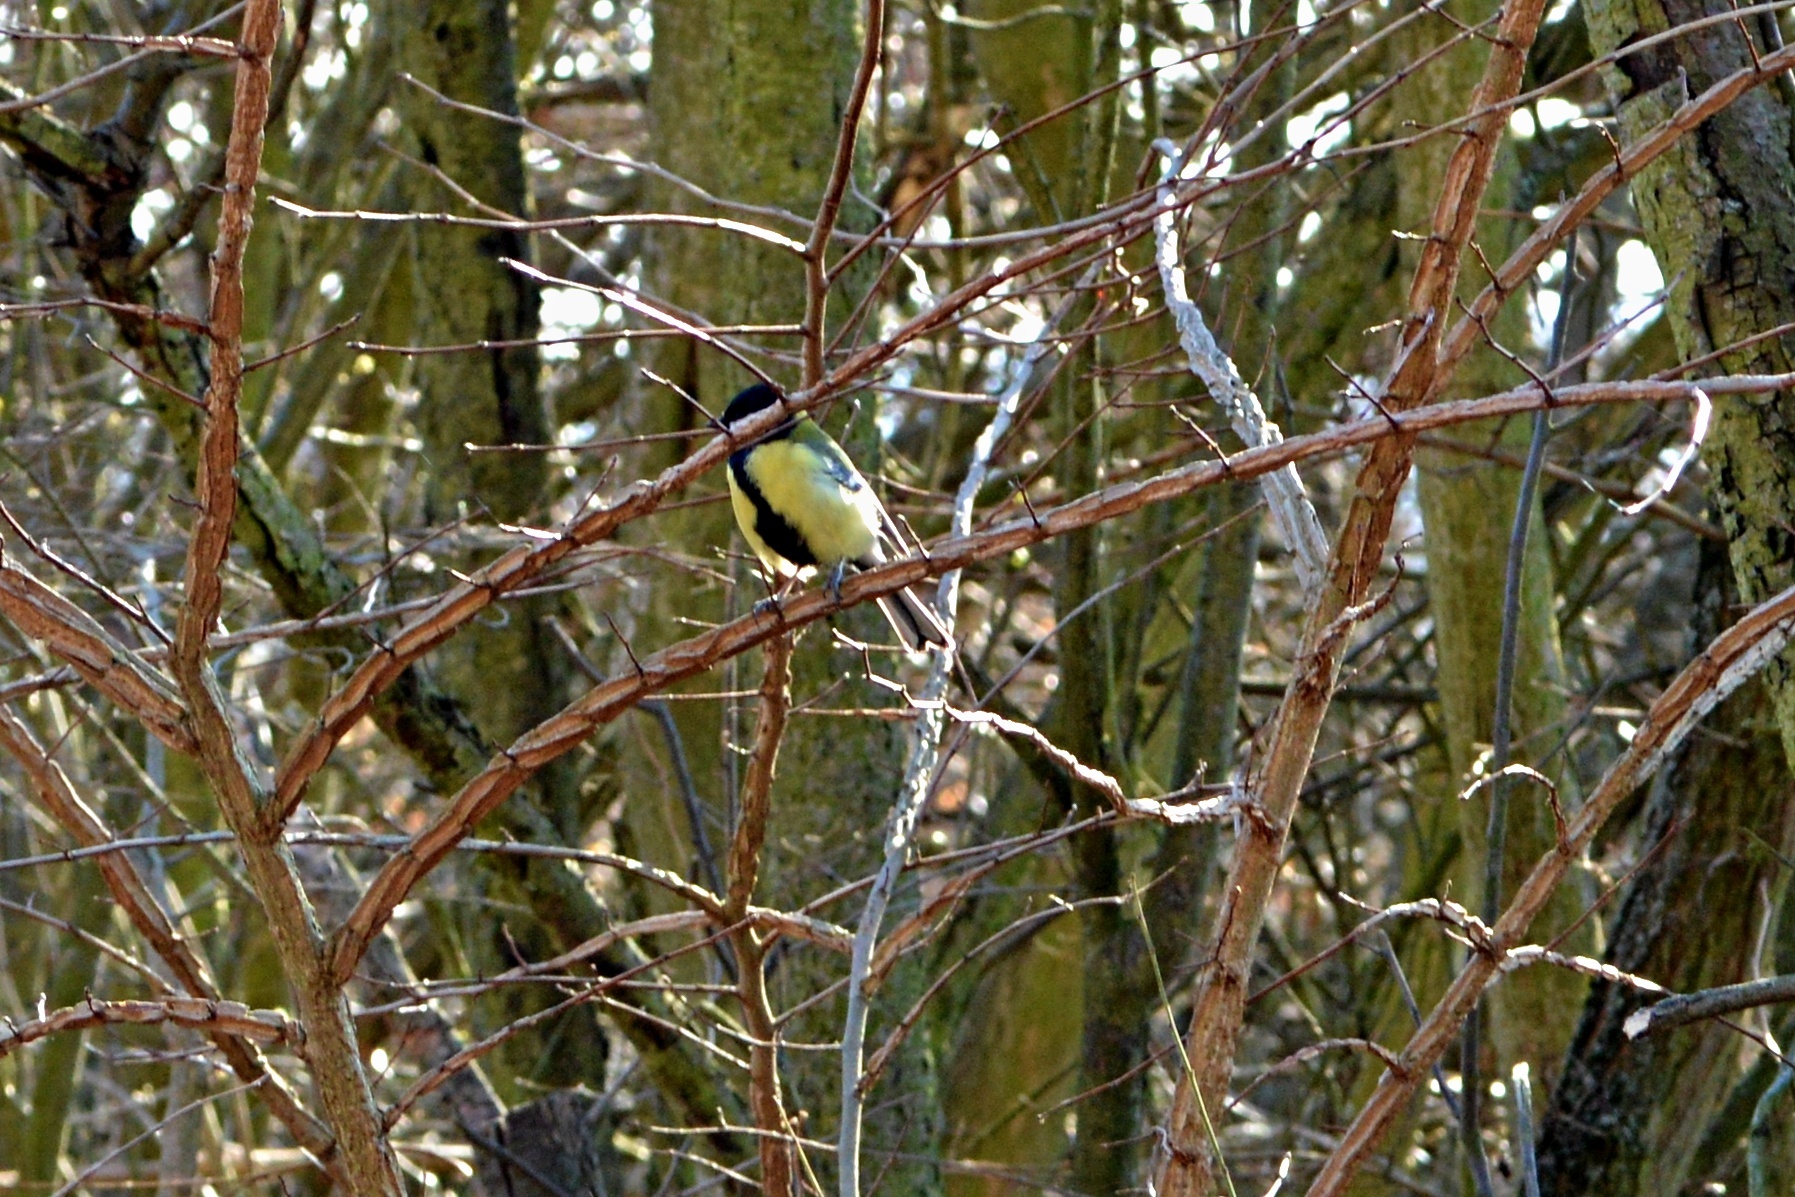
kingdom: Animalia
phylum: Chordata
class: Aves
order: Passeriformes
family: Paridae
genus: Parus
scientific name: Parus major
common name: Great tit
